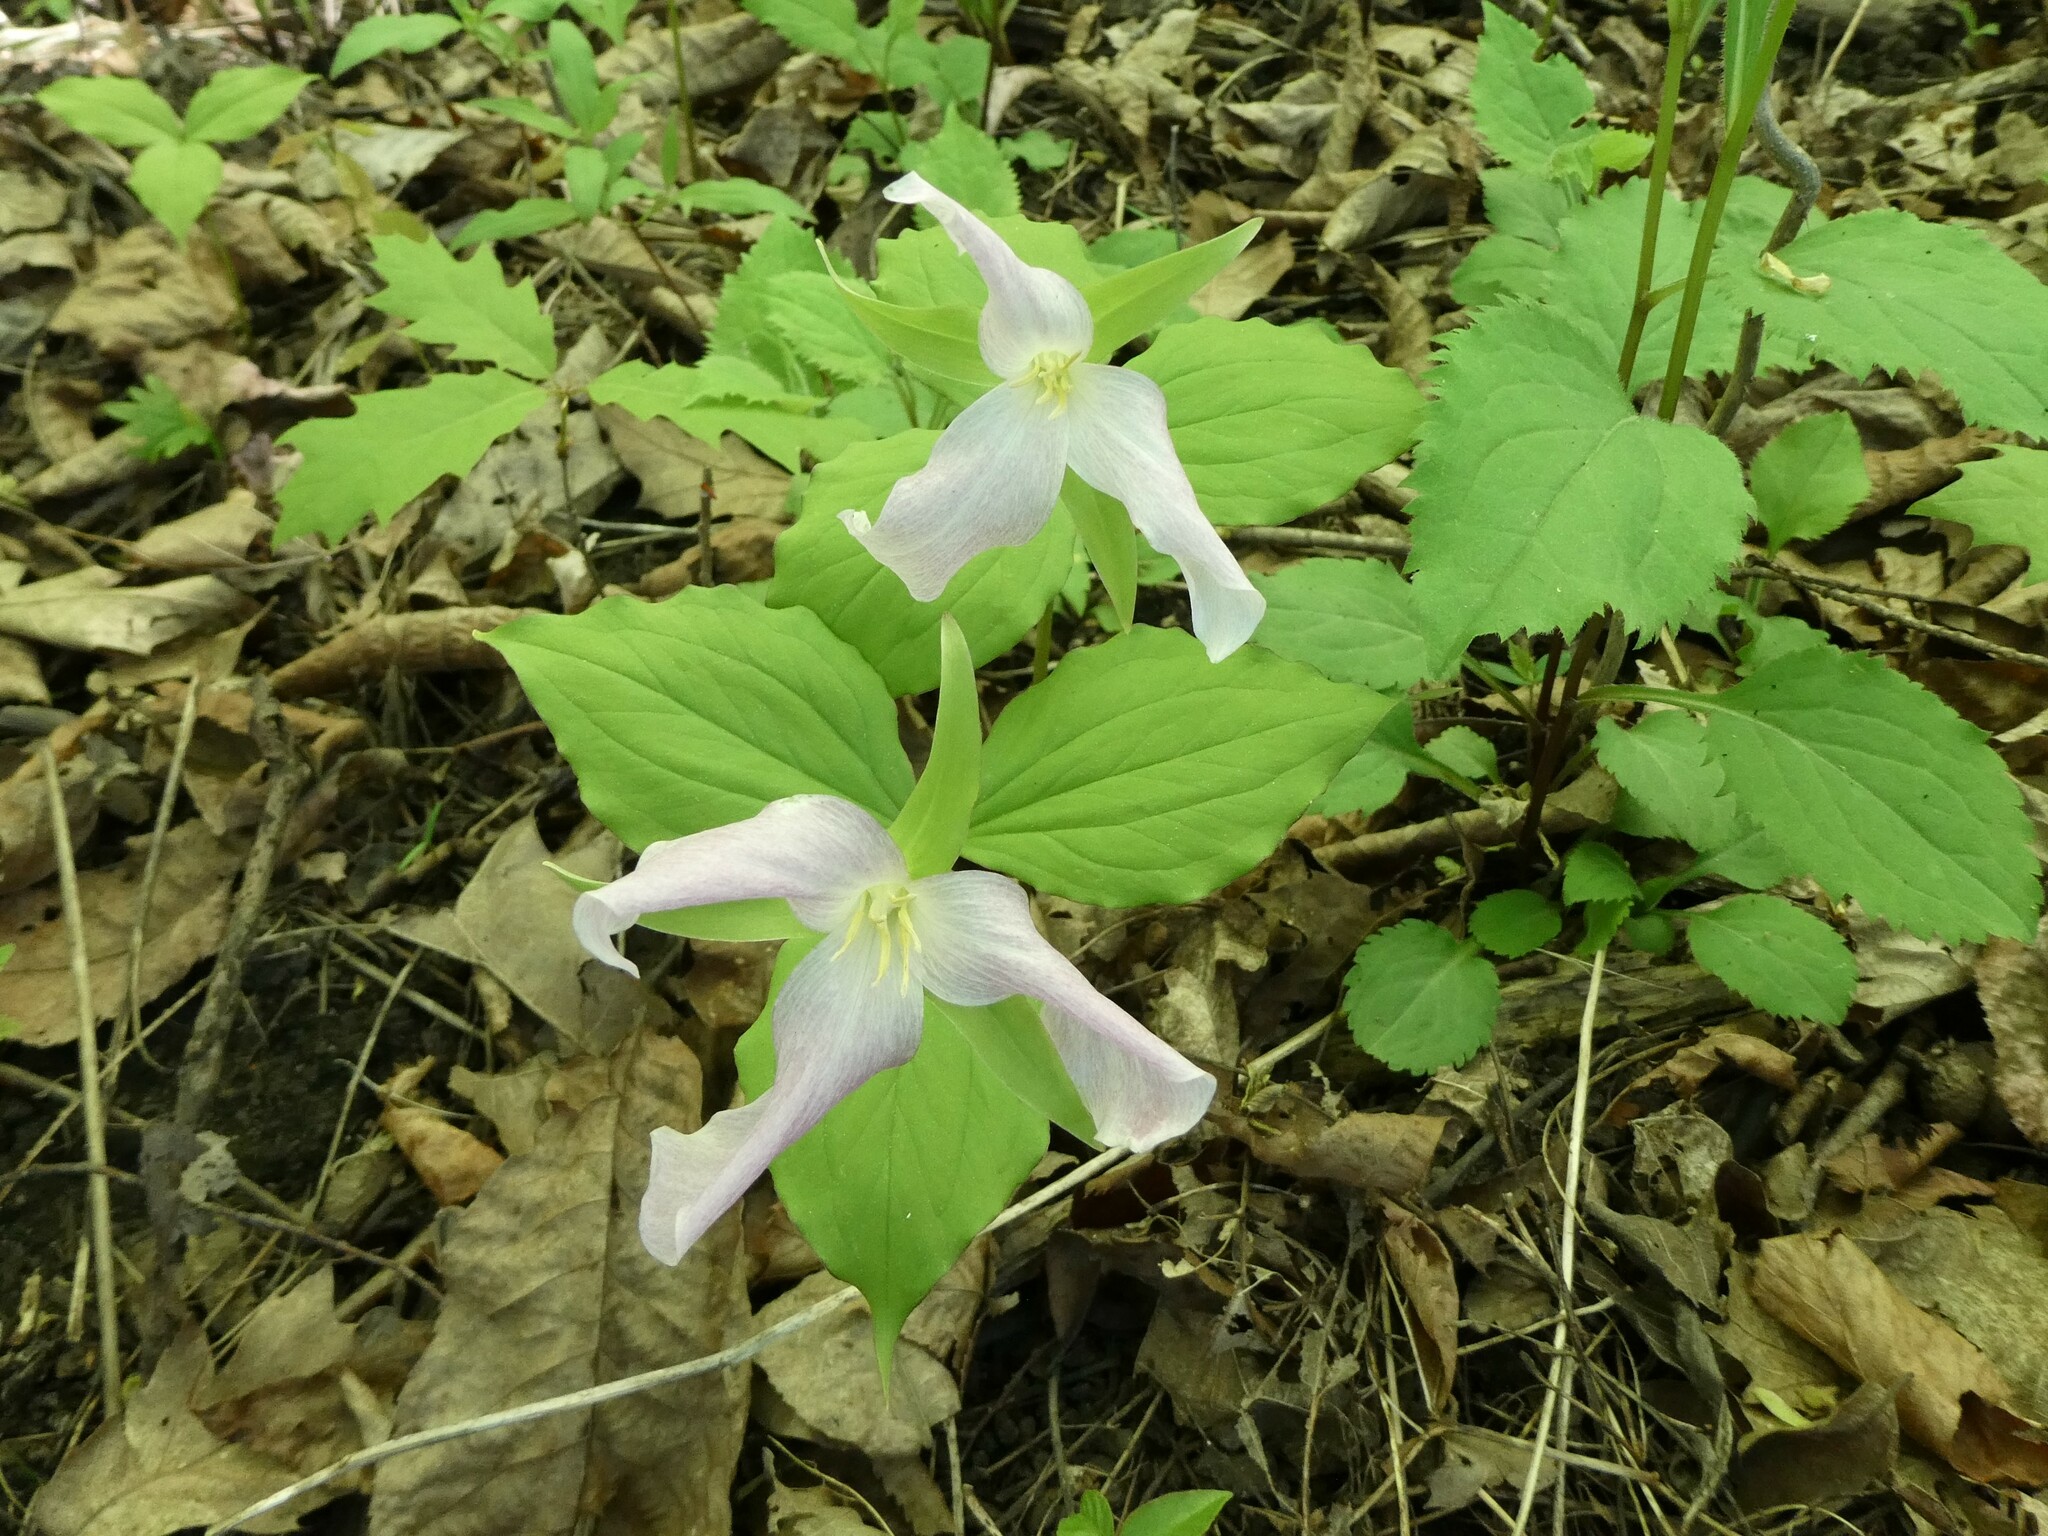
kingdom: Plantae
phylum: Tracheophyta
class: Liliopsida
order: Liliales
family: Melanthiaceae
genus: Trillium
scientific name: Trillium grandiflorum
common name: Great white trillium
